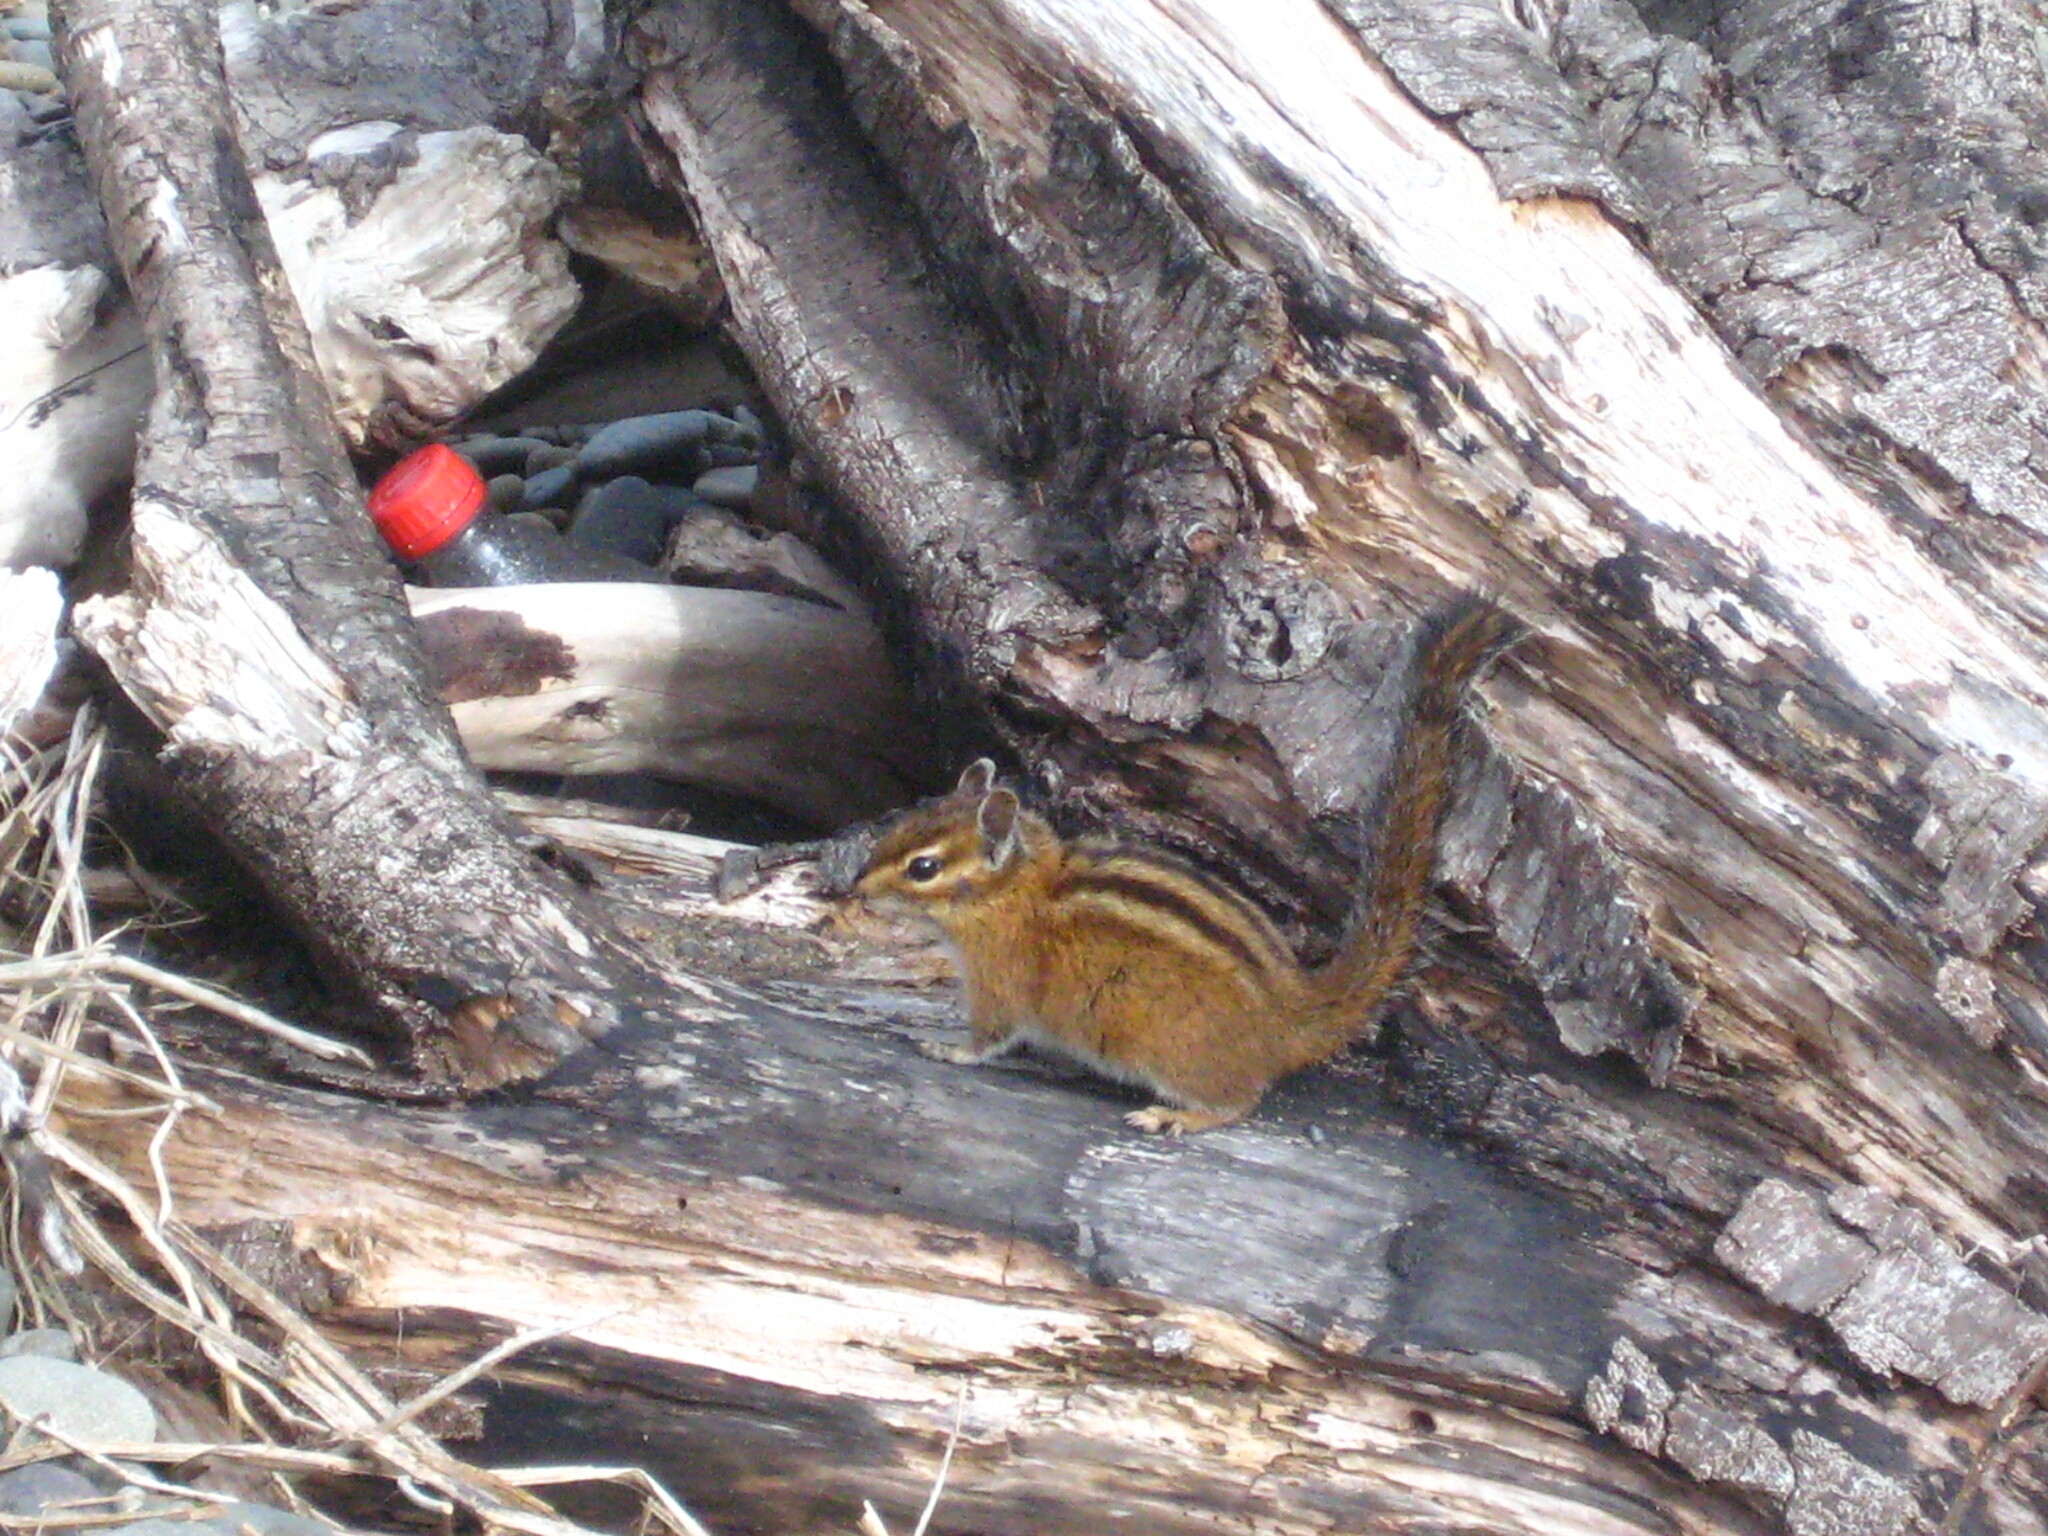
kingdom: Animalia
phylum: Chordata
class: Mammalia
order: Rodentia
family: Sciuridae
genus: Tamias
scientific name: Tamias townsendii
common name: Townsend's chipmunk
